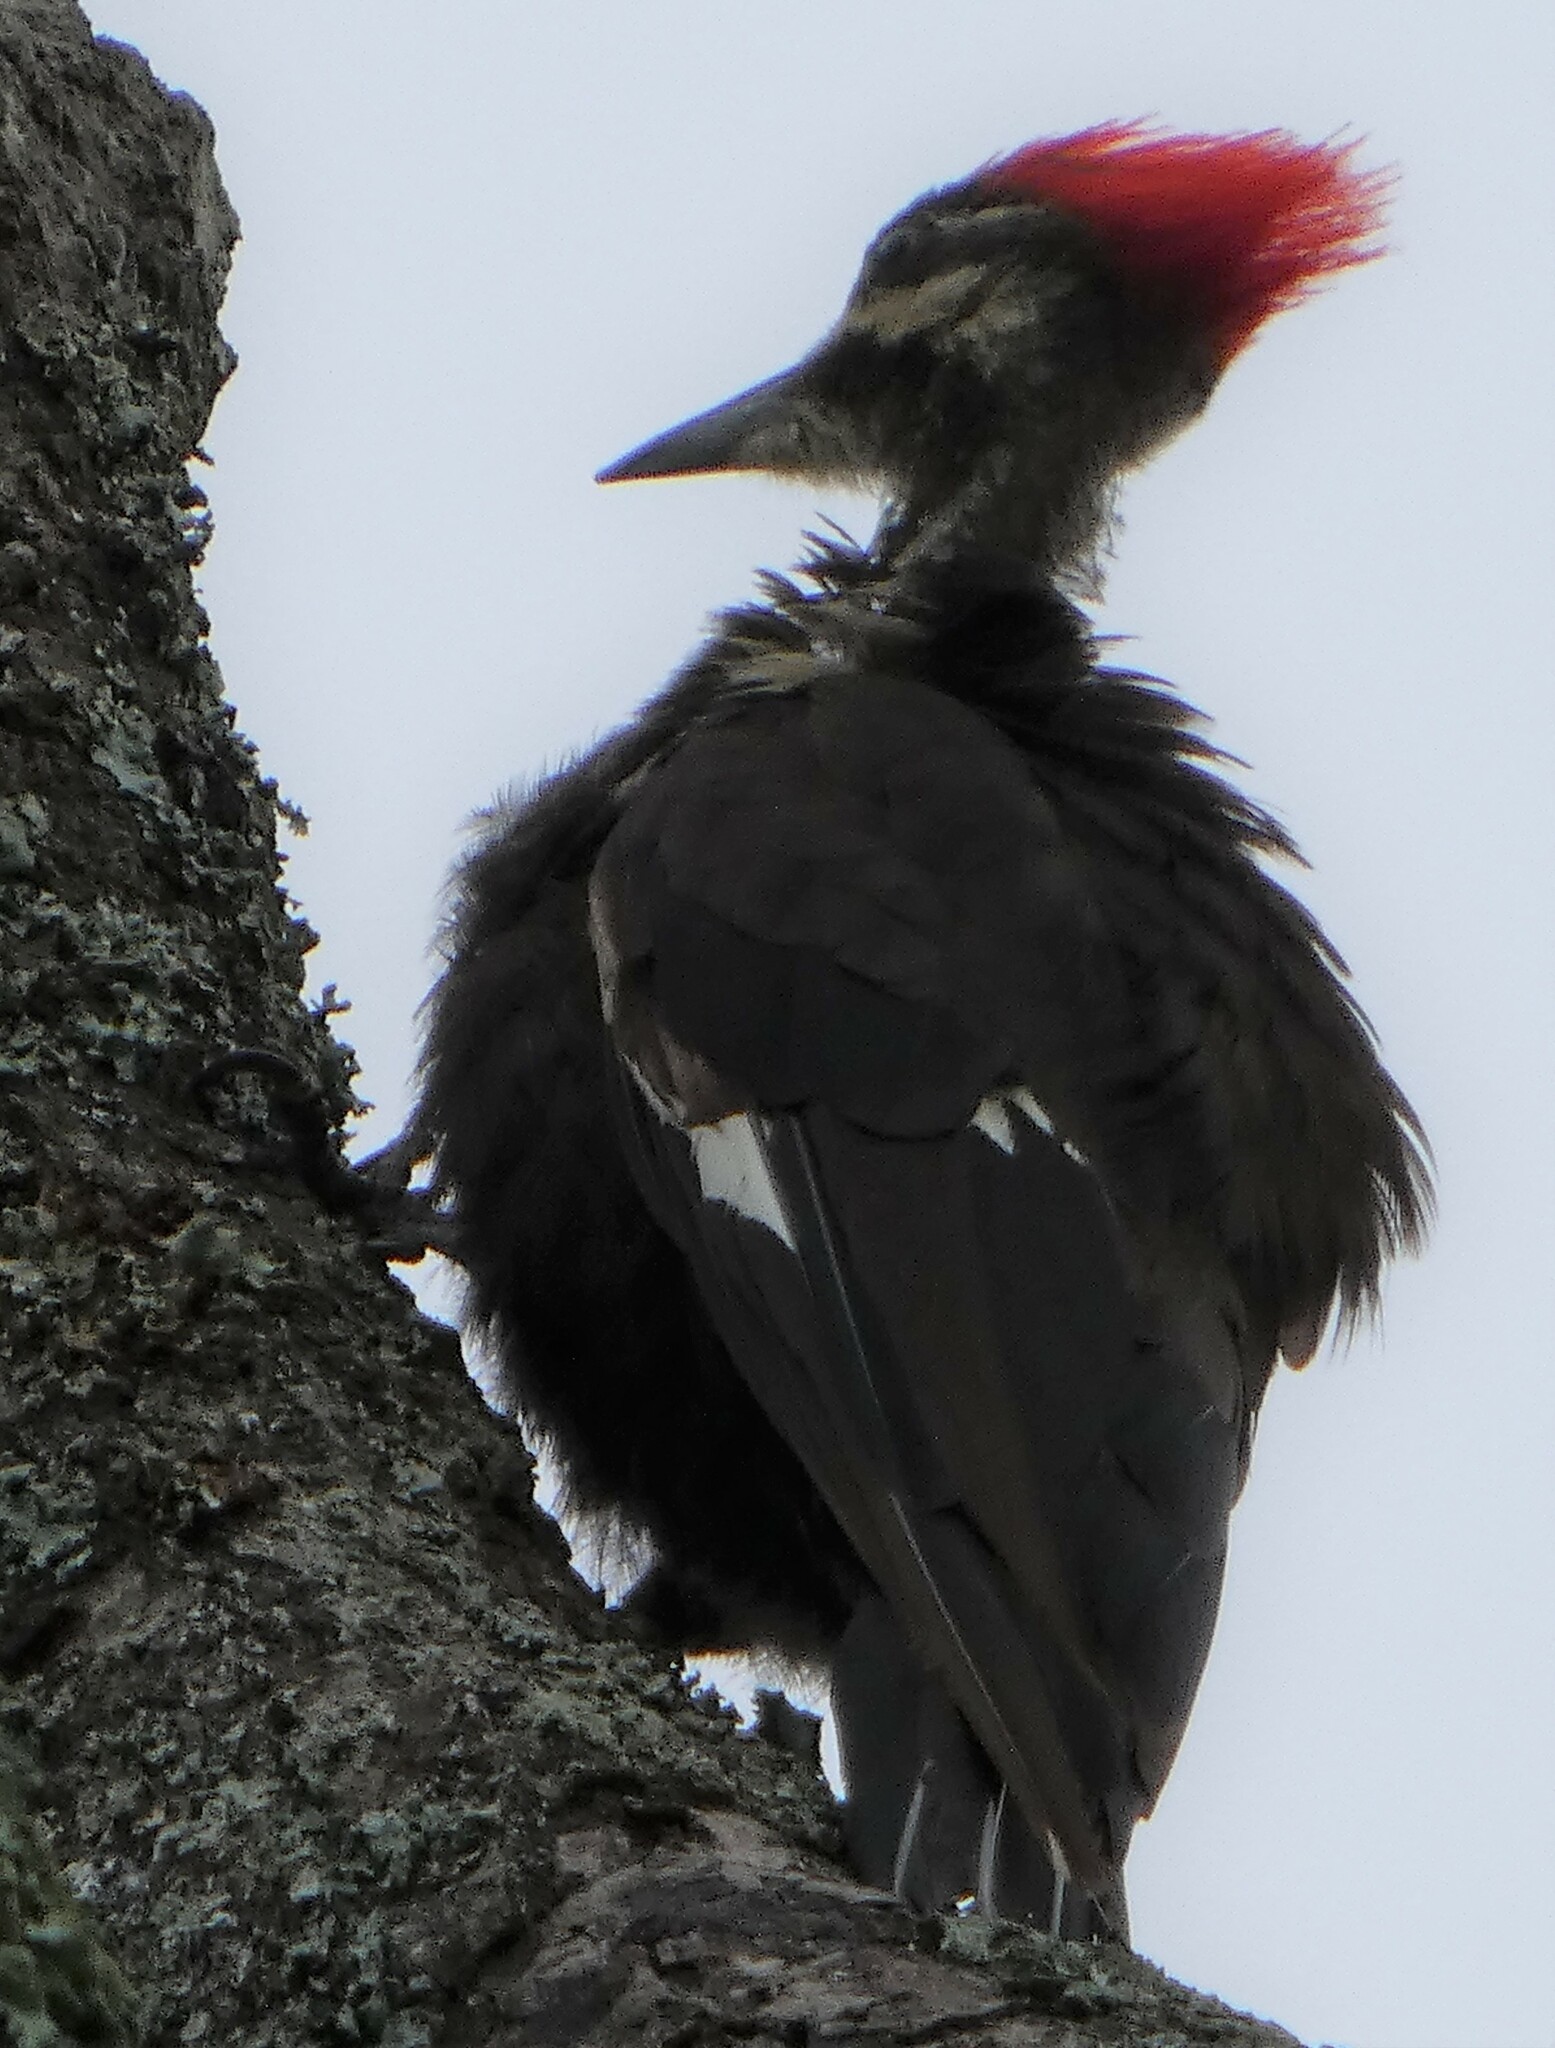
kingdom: Animalia
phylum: Chordata
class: Aves
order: Piciformes
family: Picidae
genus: Dryocopus
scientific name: Dryocopus pileatus
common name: Pileated woodpecker
